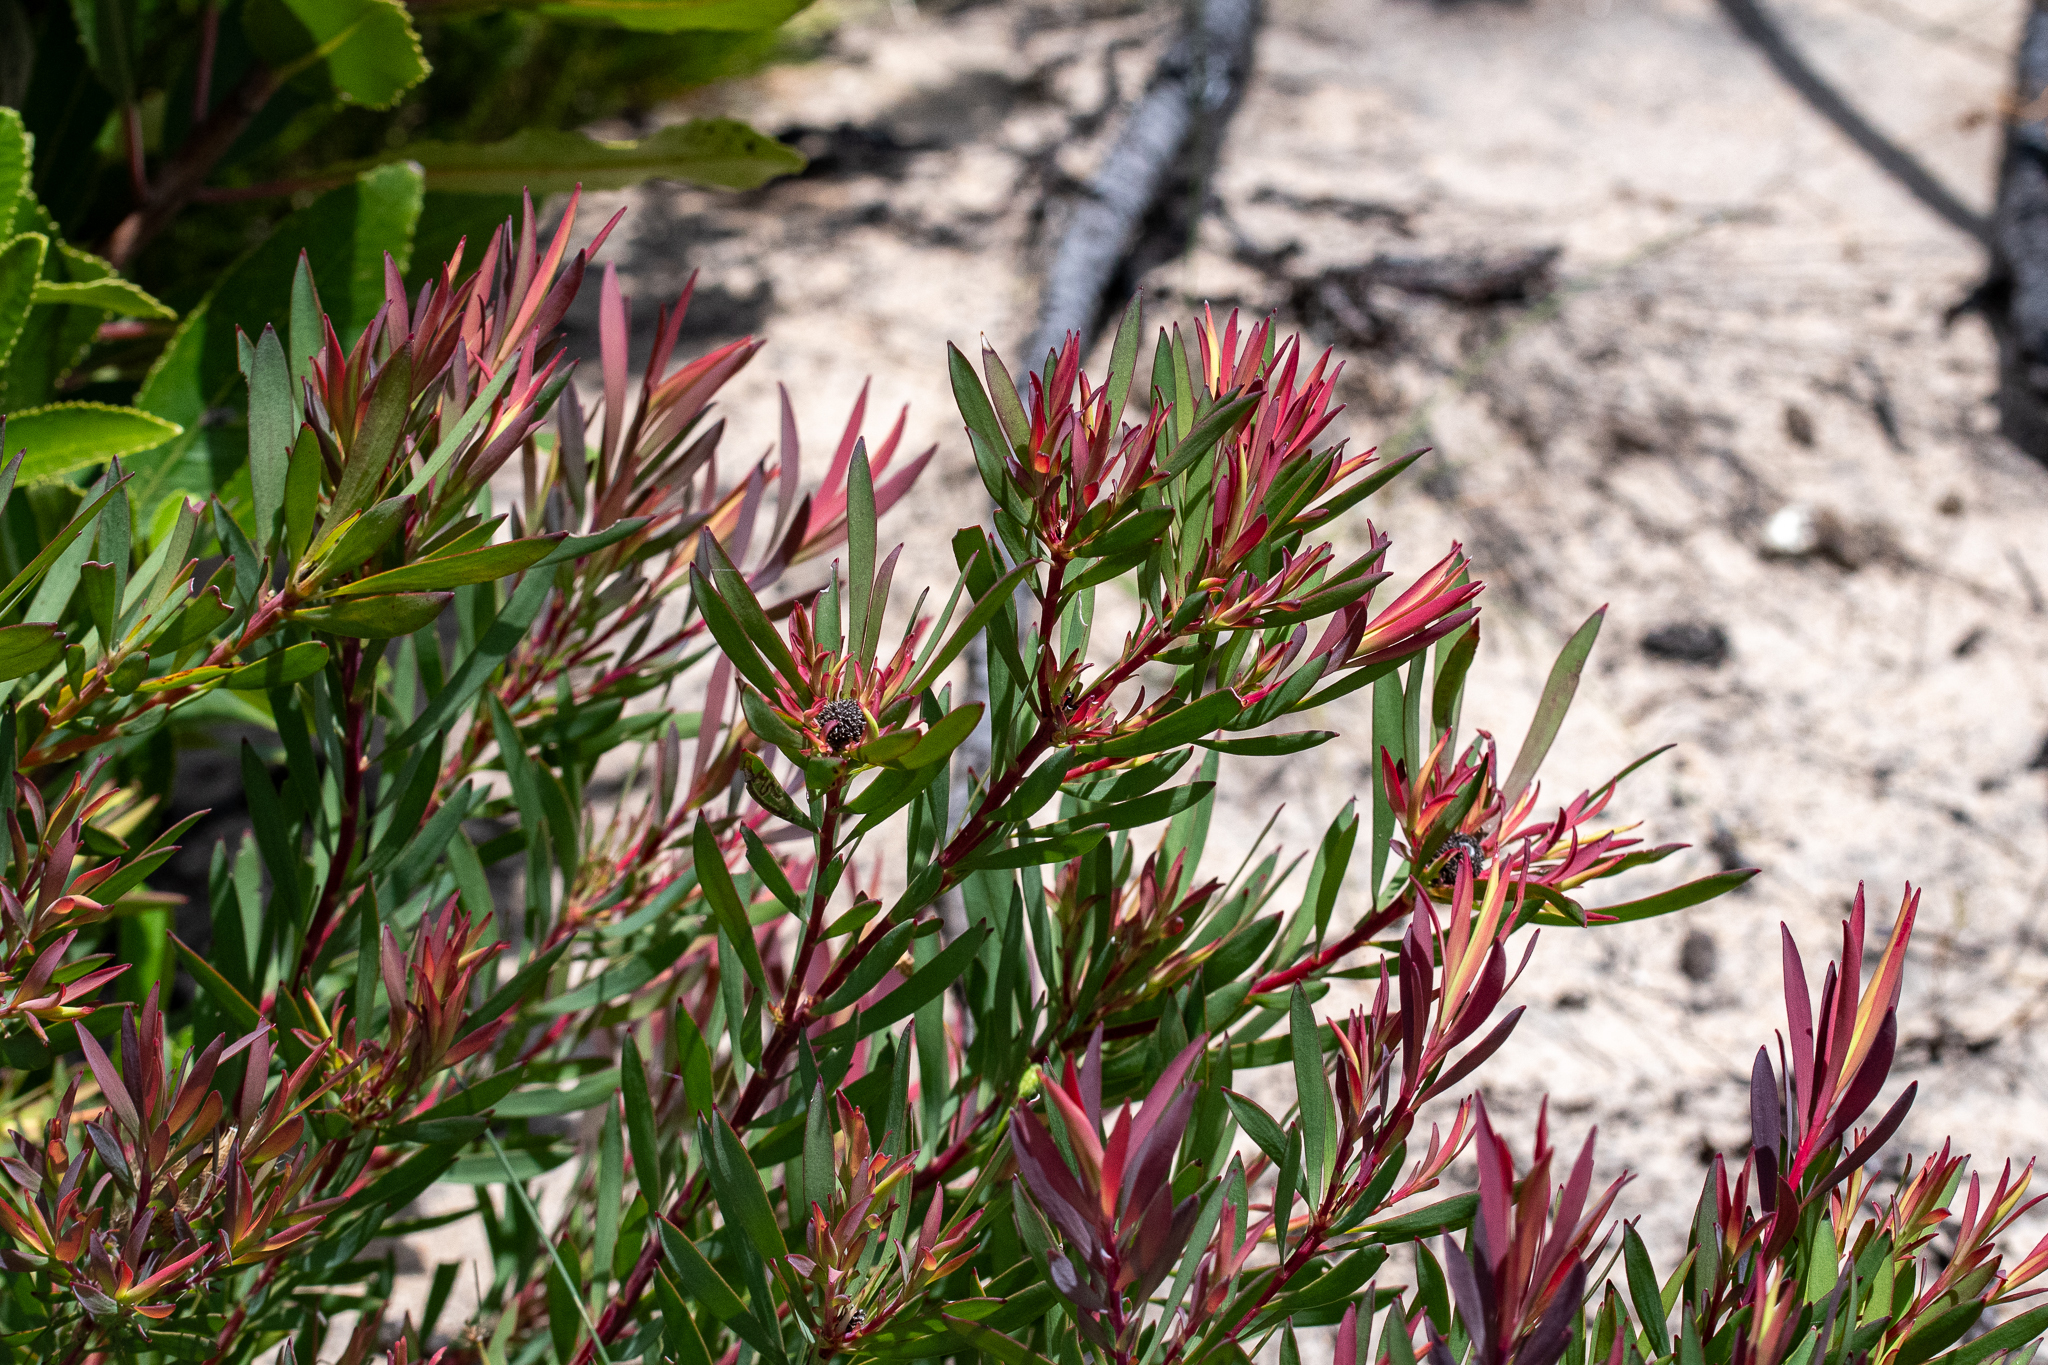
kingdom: Plantae
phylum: Tracheophyta
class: Magnoliopsida
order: Proteales
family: Proteaceae
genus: Leucadendron
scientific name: Leucadendron salignum
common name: Common sunshine conebush
